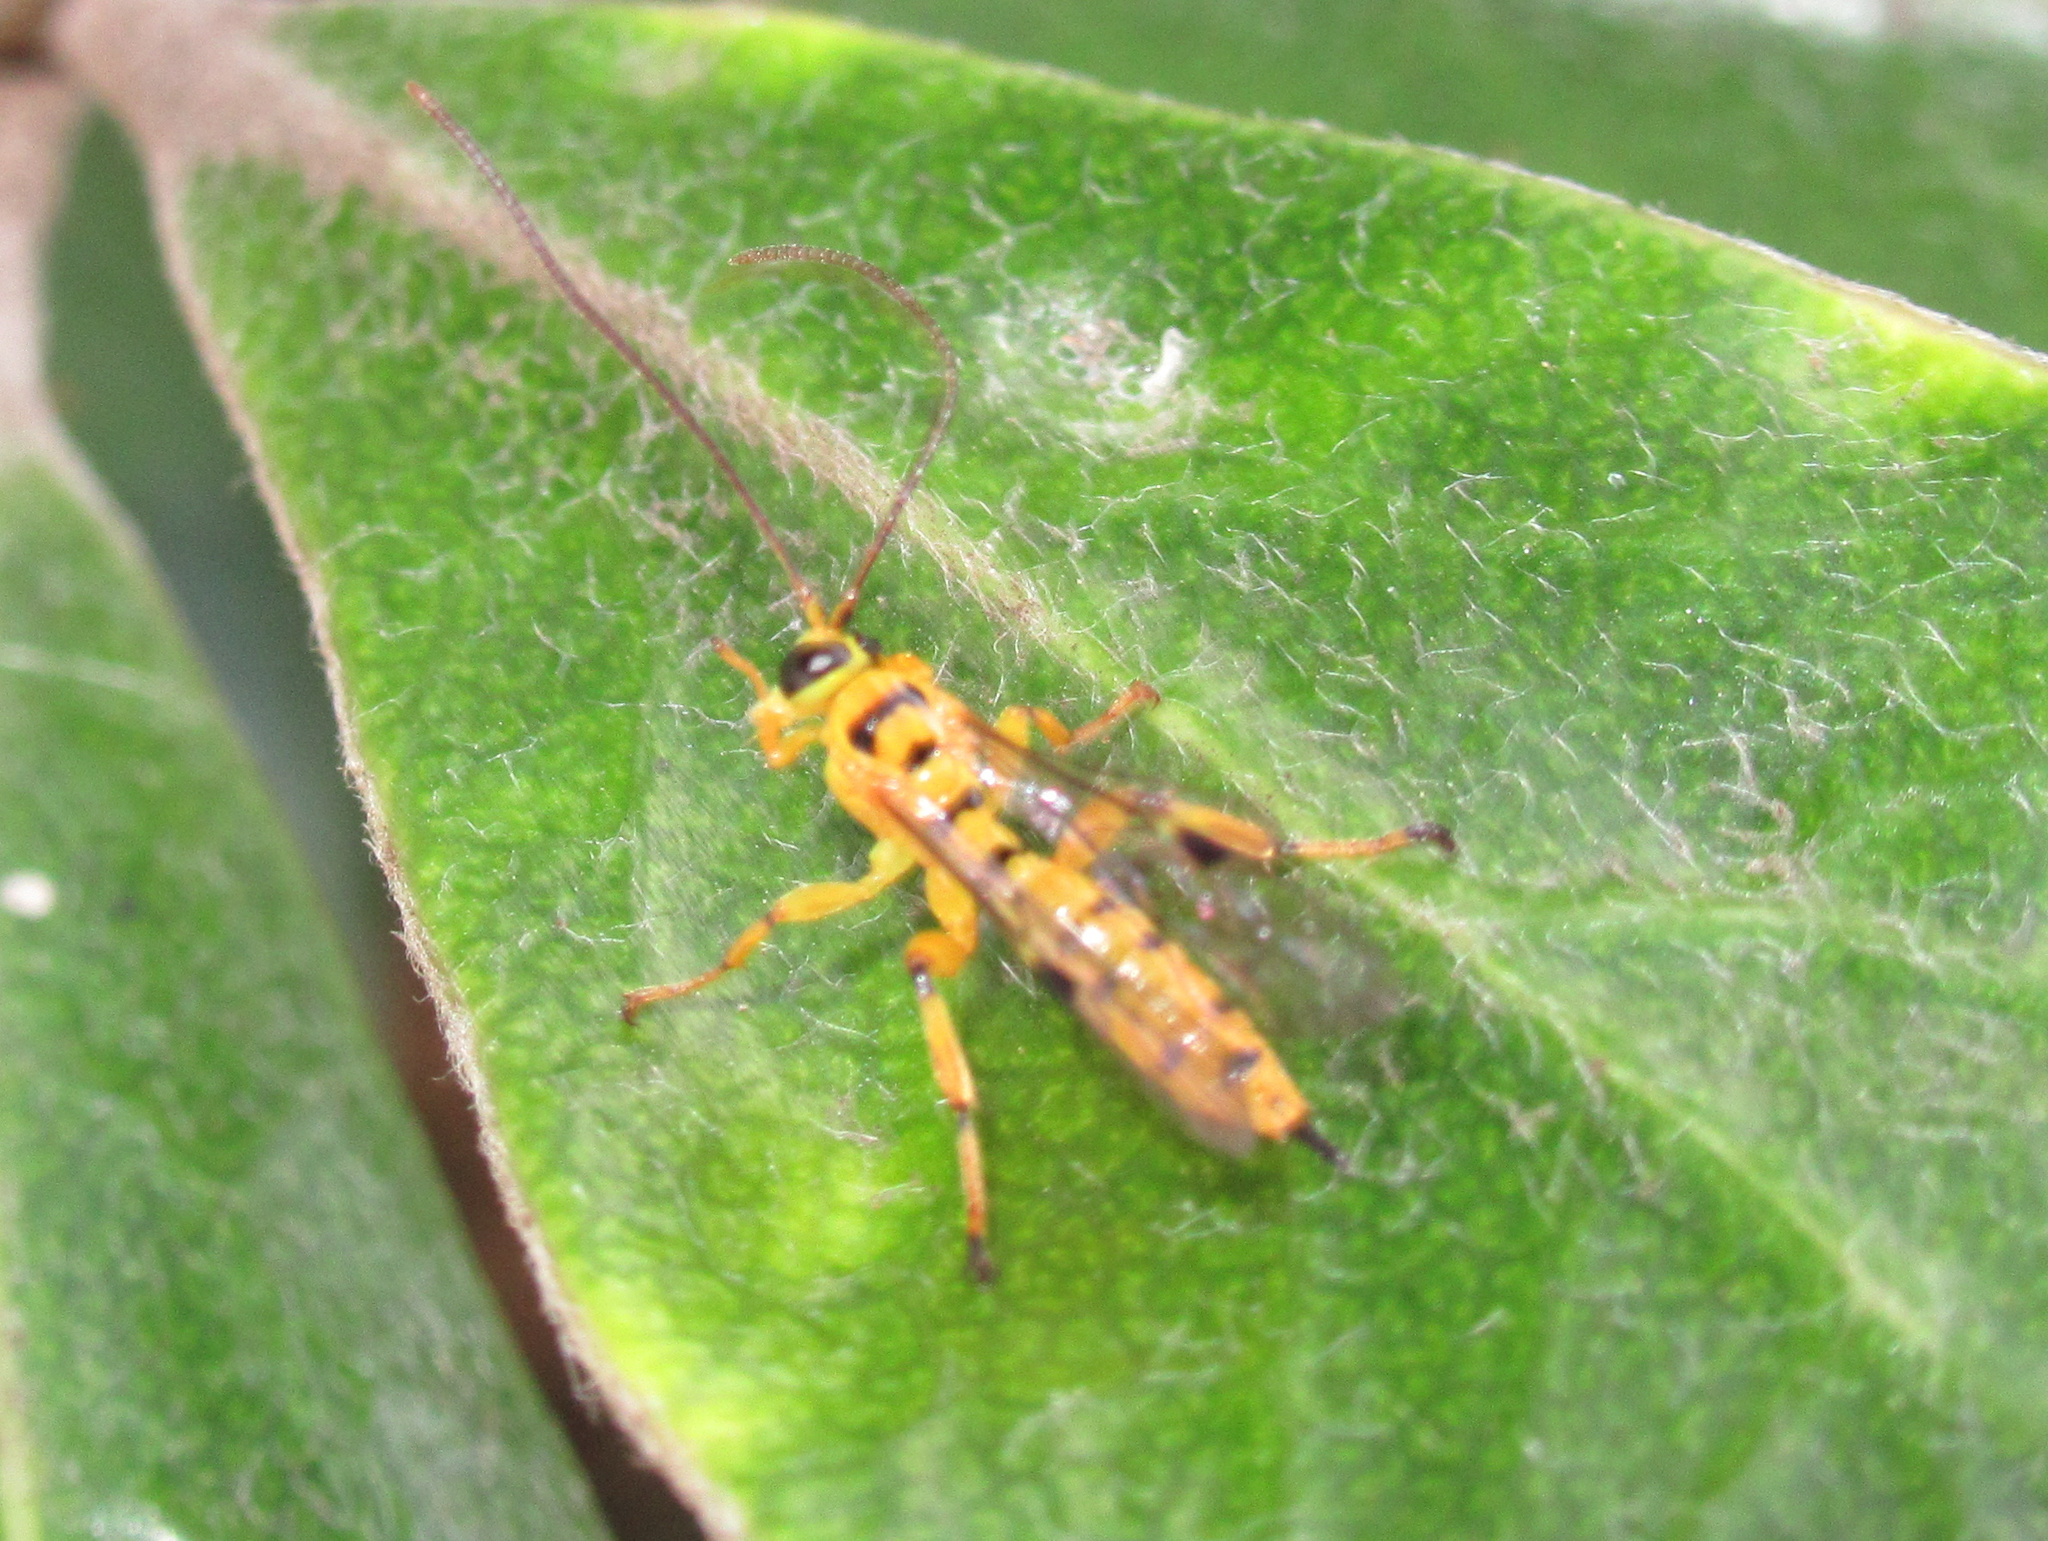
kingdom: Animalia
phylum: Arthropoda
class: Insecta
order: Hymenoptera
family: Ichneumonidae
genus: Xanthopimpla
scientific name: Xanthopimpla rhopaloceros
